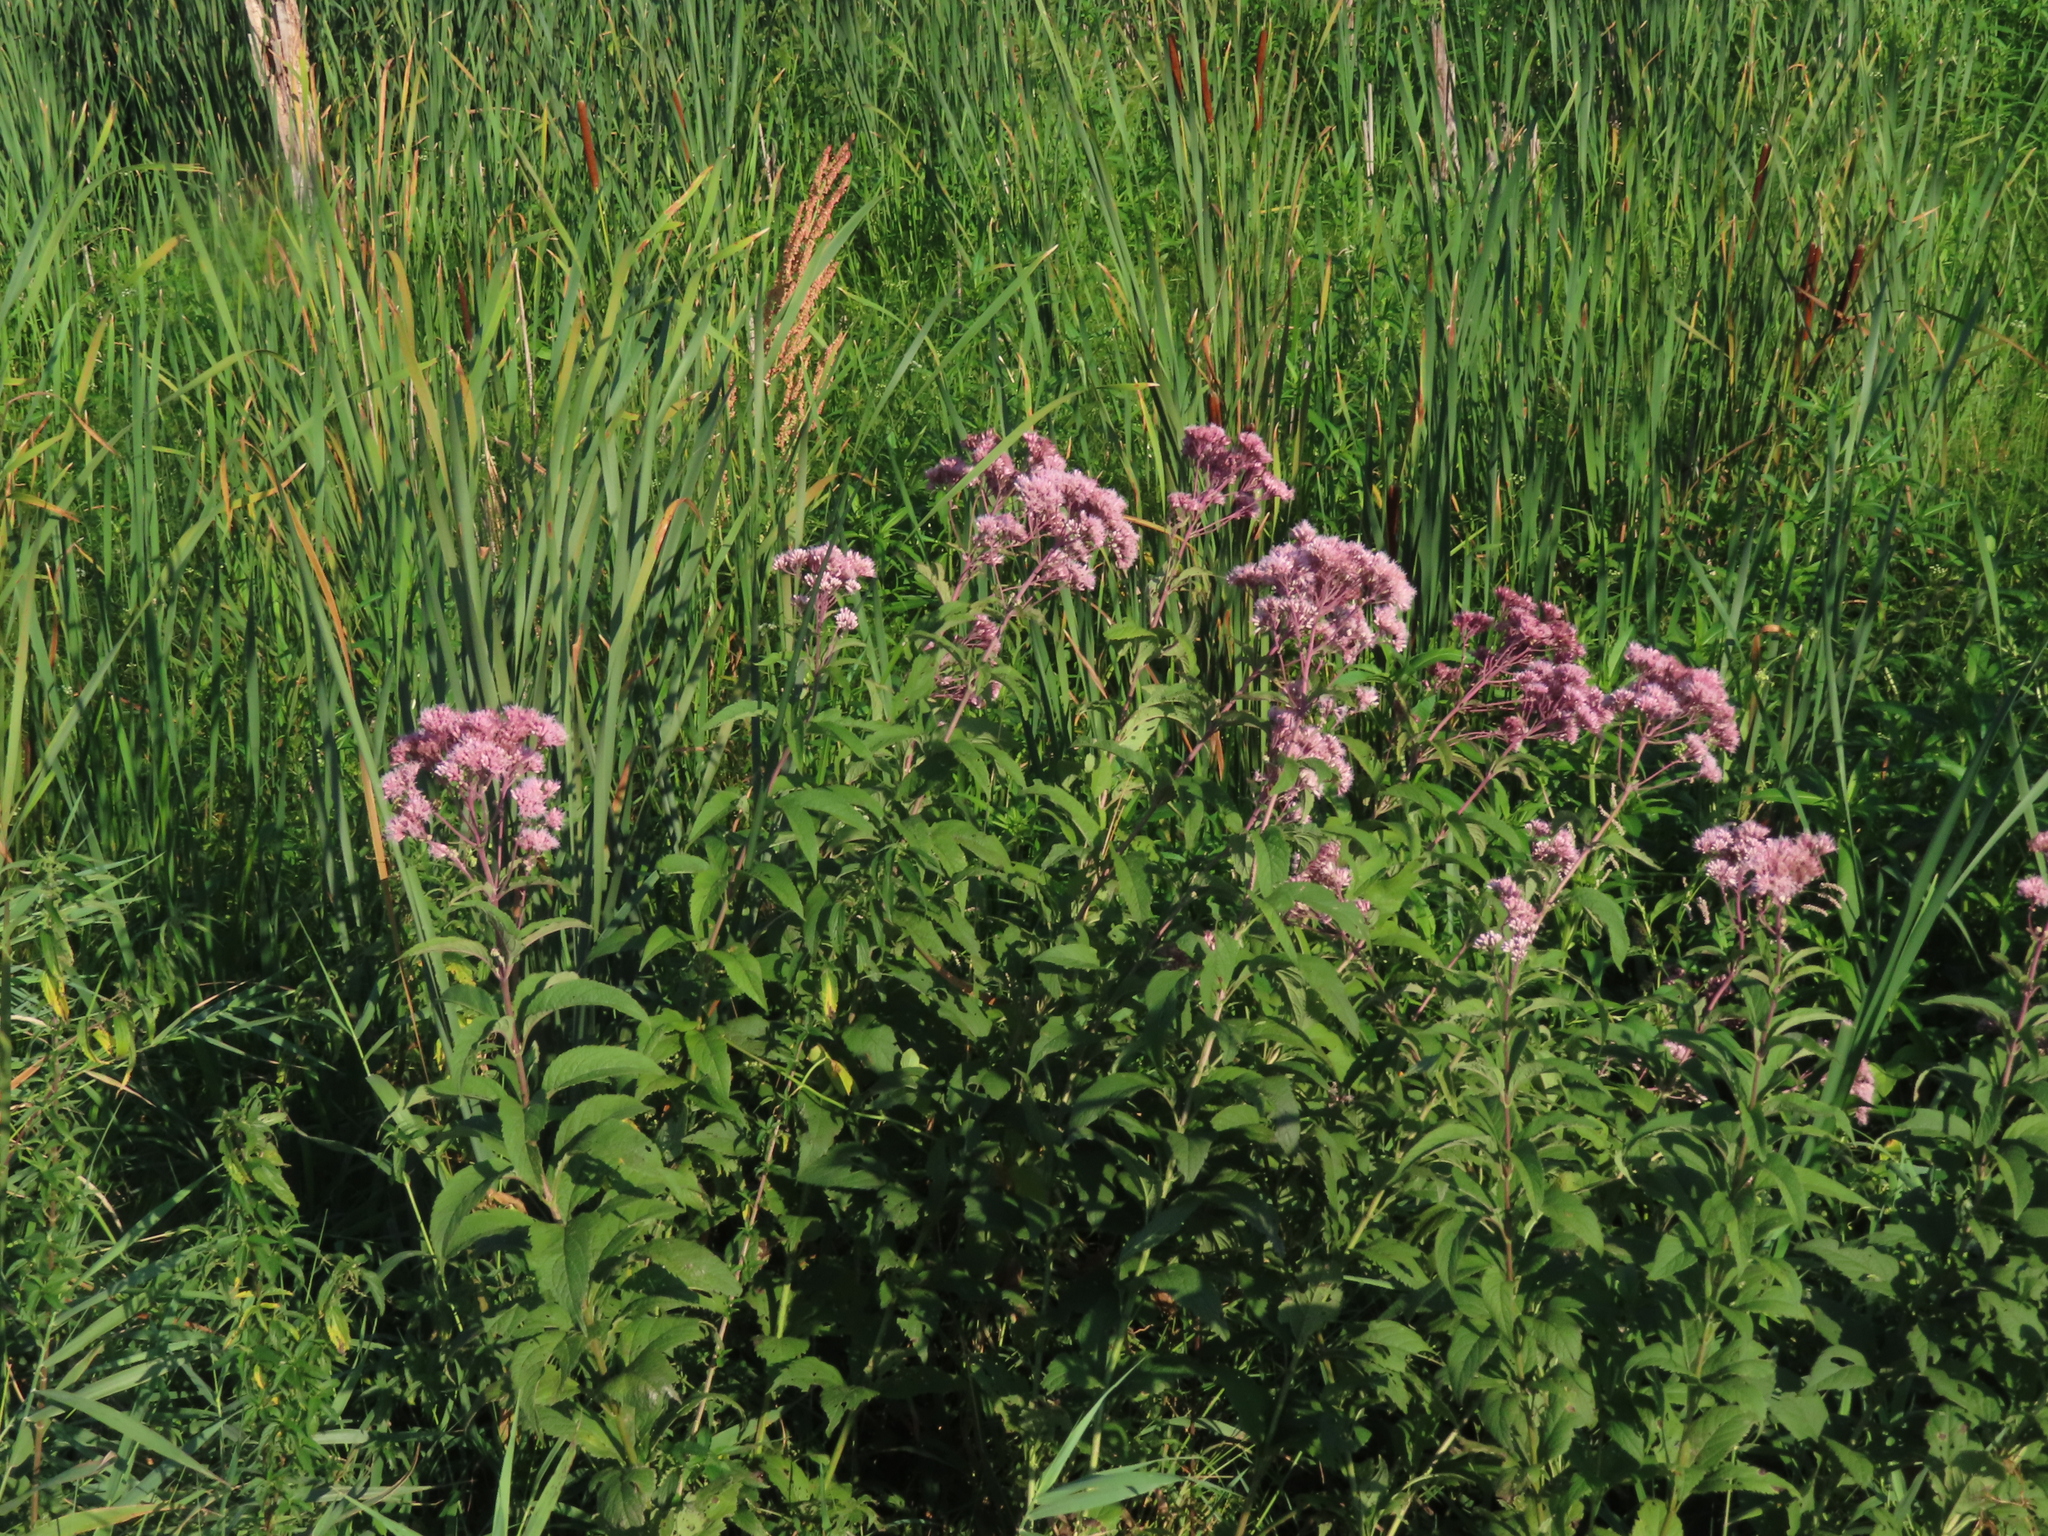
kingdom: Plantae
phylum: Tracheophyta
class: Magnoliopsida
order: Asterales
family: Asteraceae
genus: Eutrochium
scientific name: Eutrochium maculatum
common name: Spotted joe pye weed
